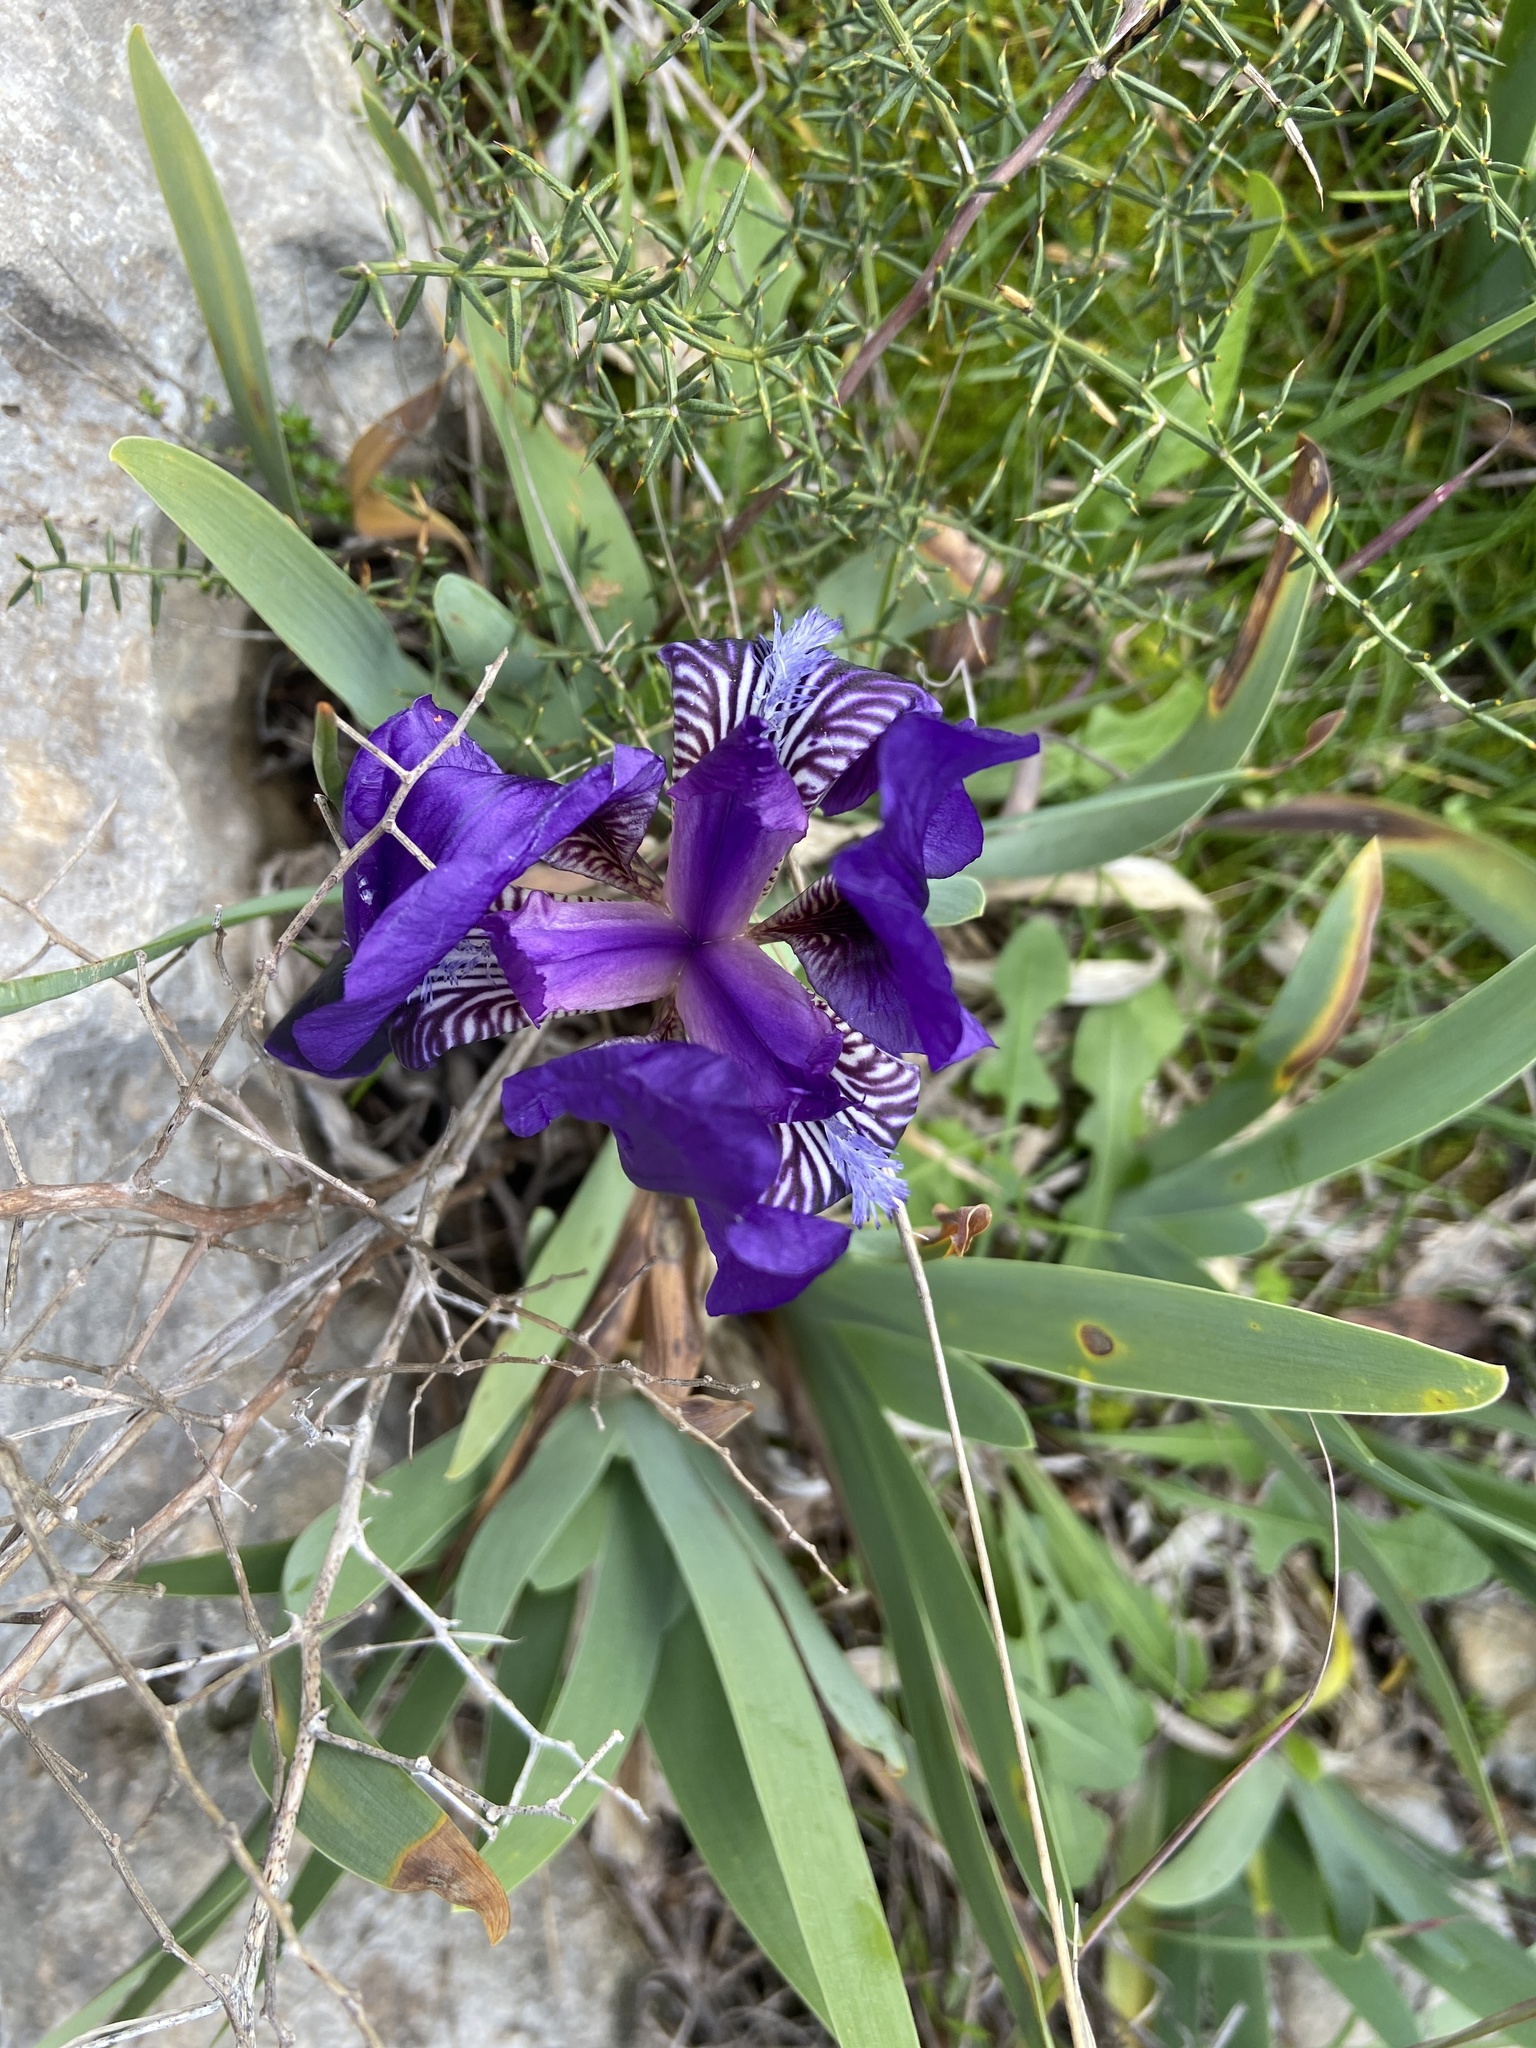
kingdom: Plantae
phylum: Tracheophyta
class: Liliopsida
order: Asparagales
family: Iridaceae
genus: Iris
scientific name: Iris
